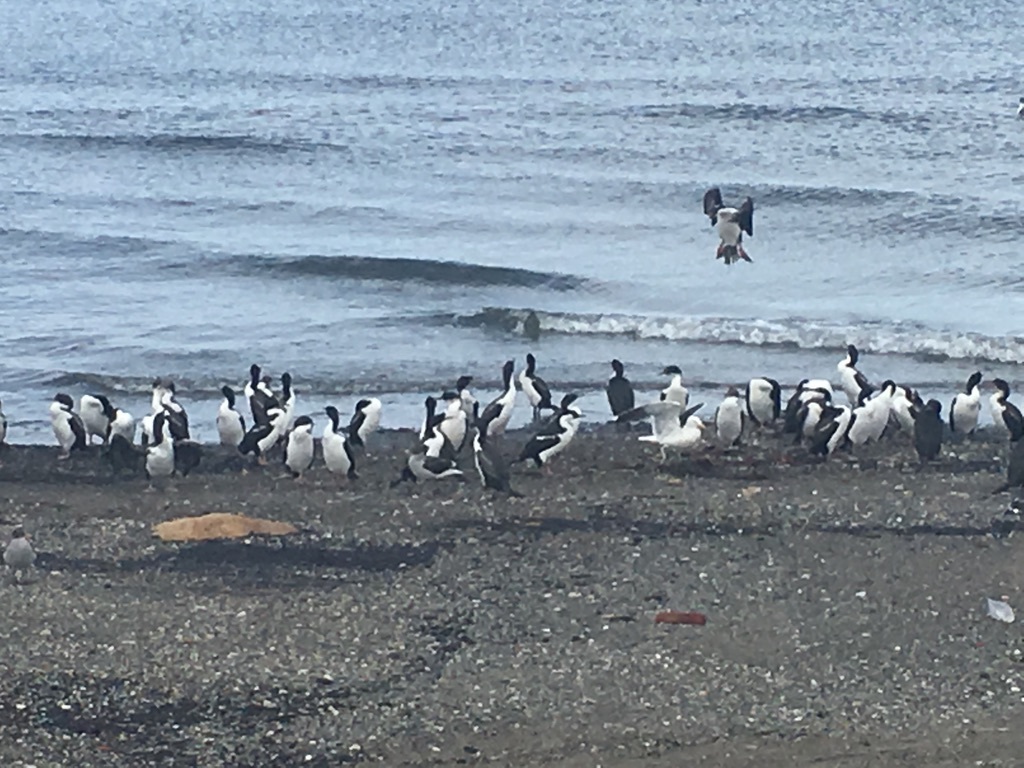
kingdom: Animalia
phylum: Chordata
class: Aves
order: Suliformes
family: Phalacrocoracidae
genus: Leucocarbo
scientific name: Leucocarbo atriceps
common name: Imperial shag
